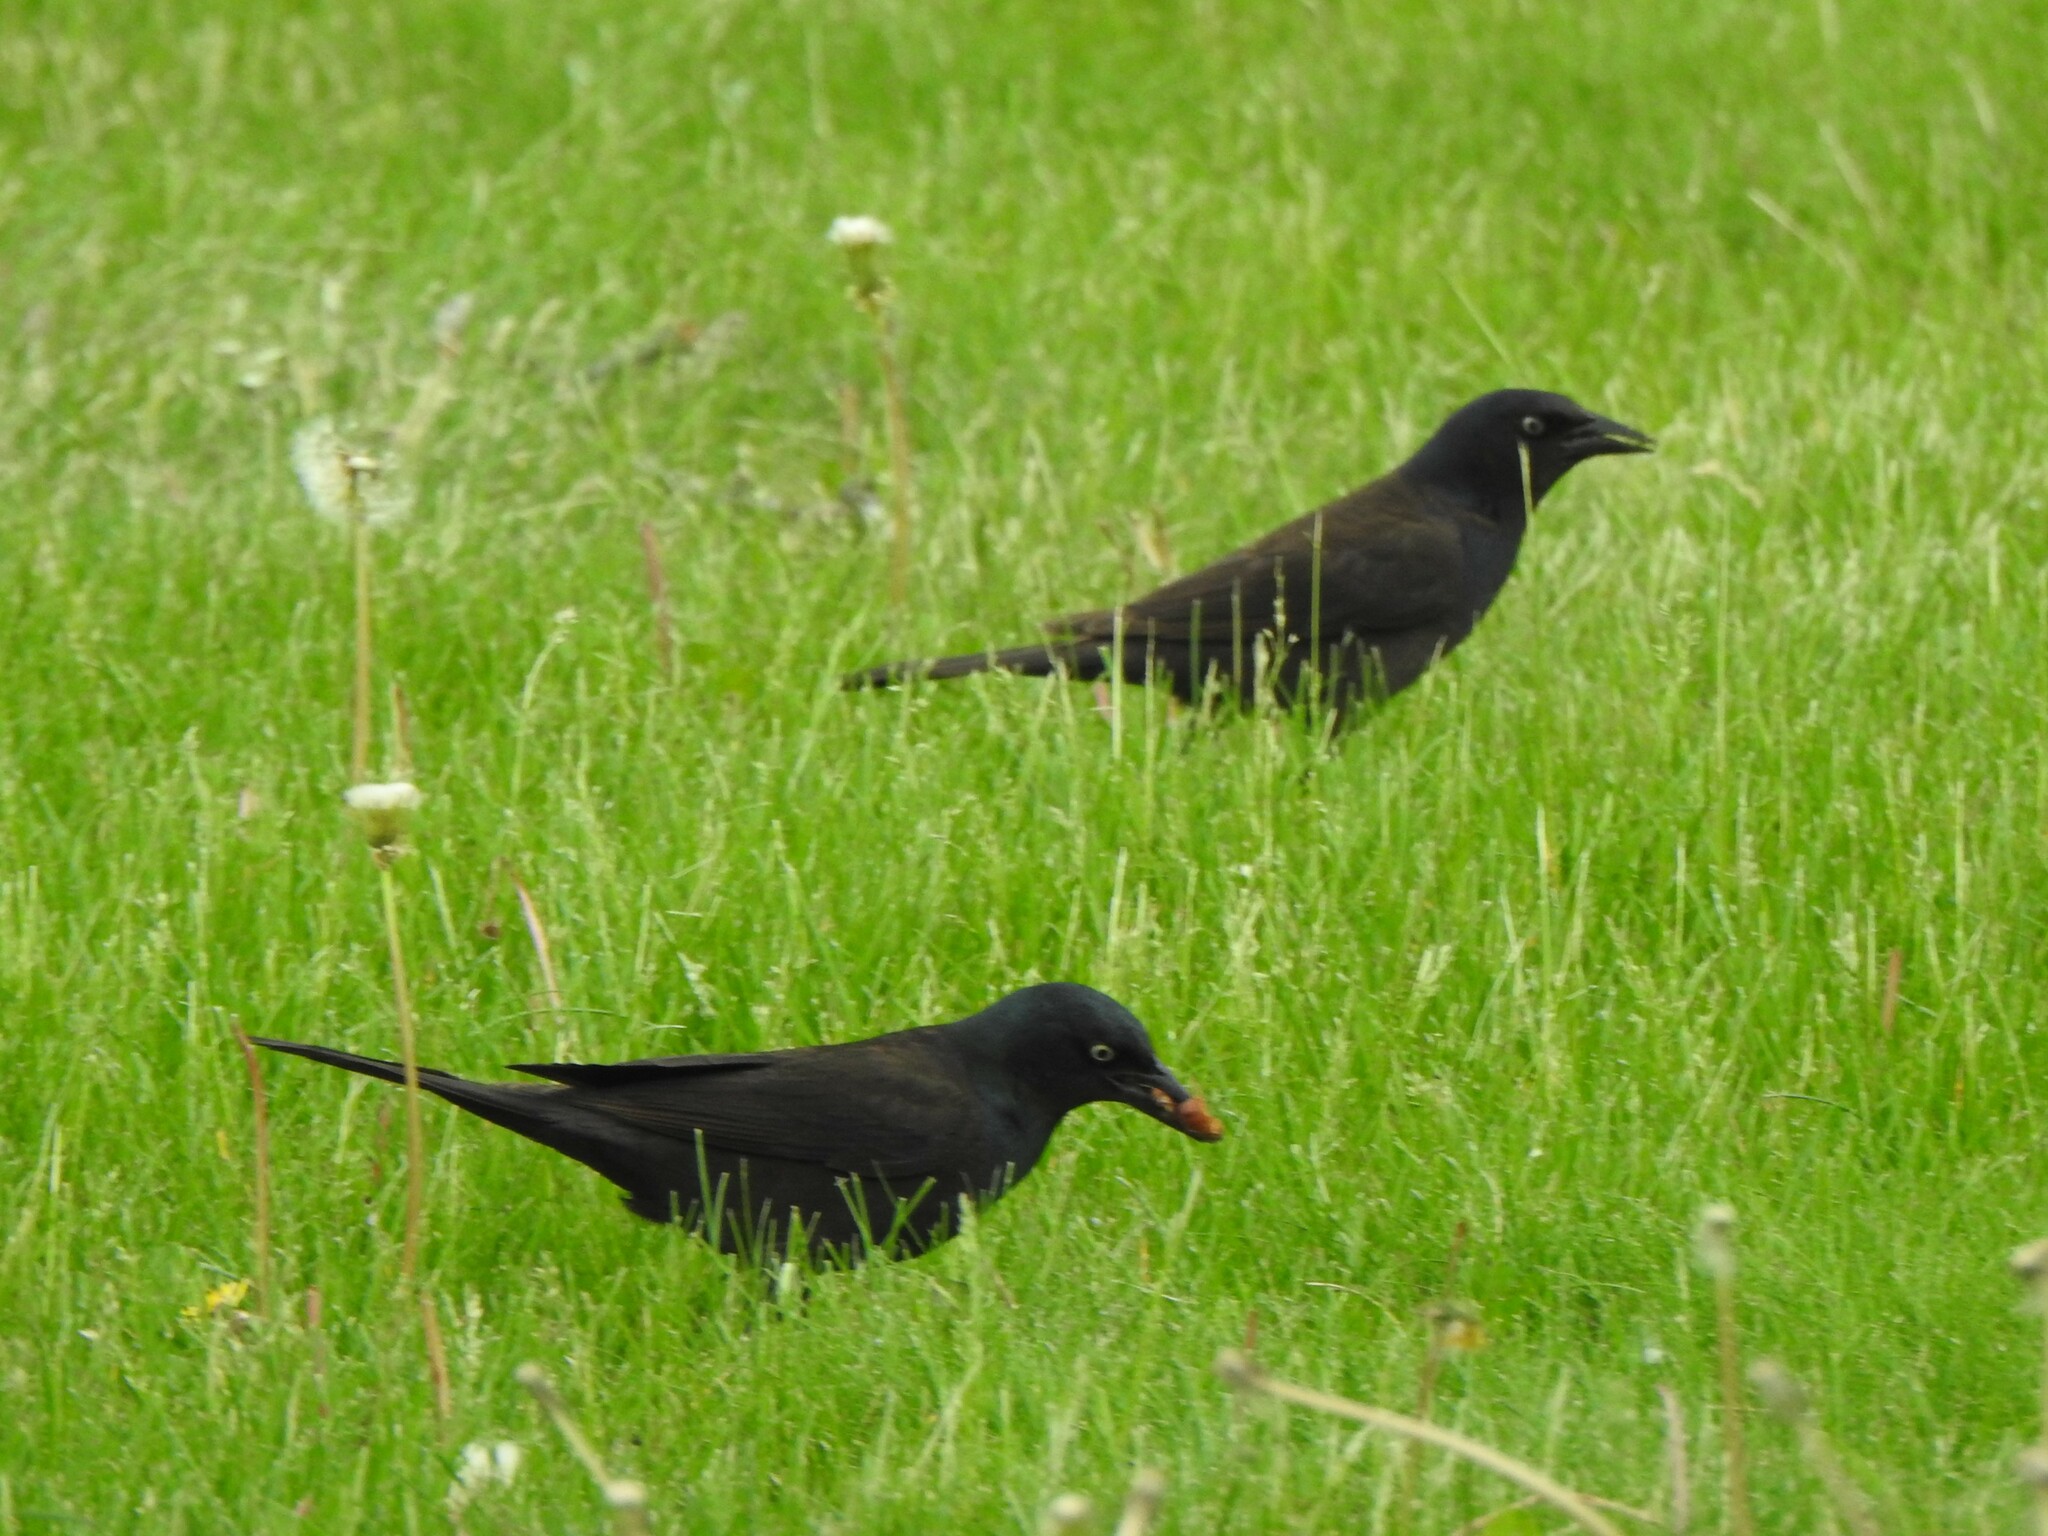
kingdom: Animalia
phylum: Chordata
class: Aves
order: Passeriformes
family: Icteridae
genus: Quiscalus
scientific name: Quiscalus quiscula
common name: Common grackle
